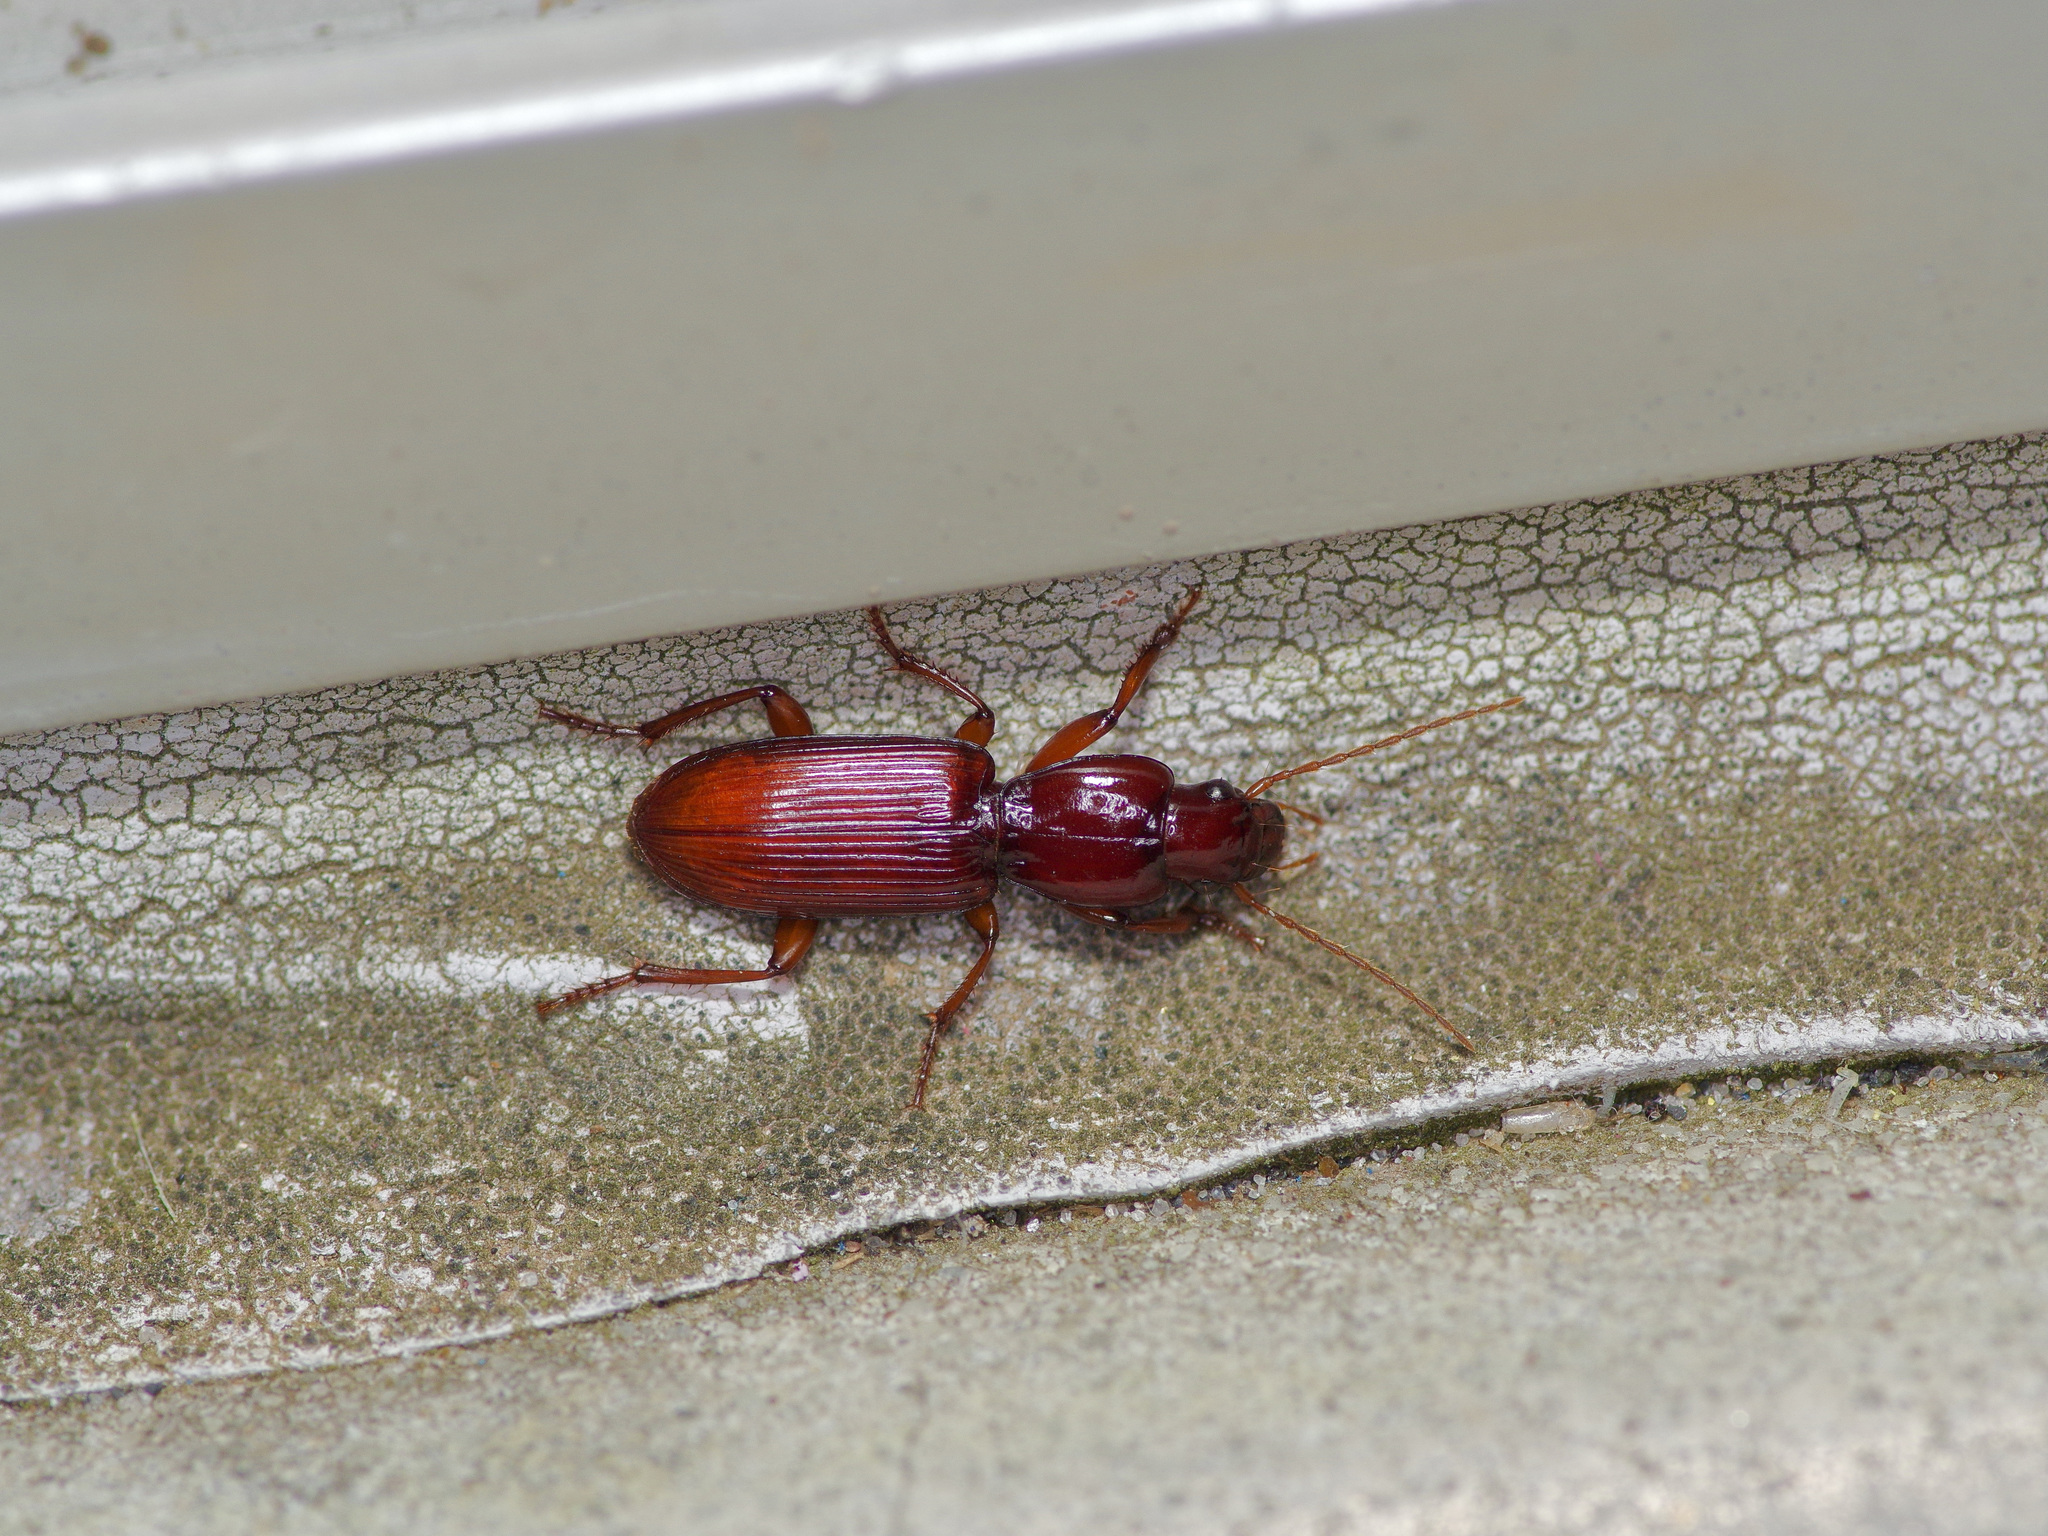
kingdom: Animalia
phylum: Arthropoda
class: Insecta
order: Coleoptera
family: Carabidae
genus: Stenomorphus
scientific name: Stenomorphus californicus
